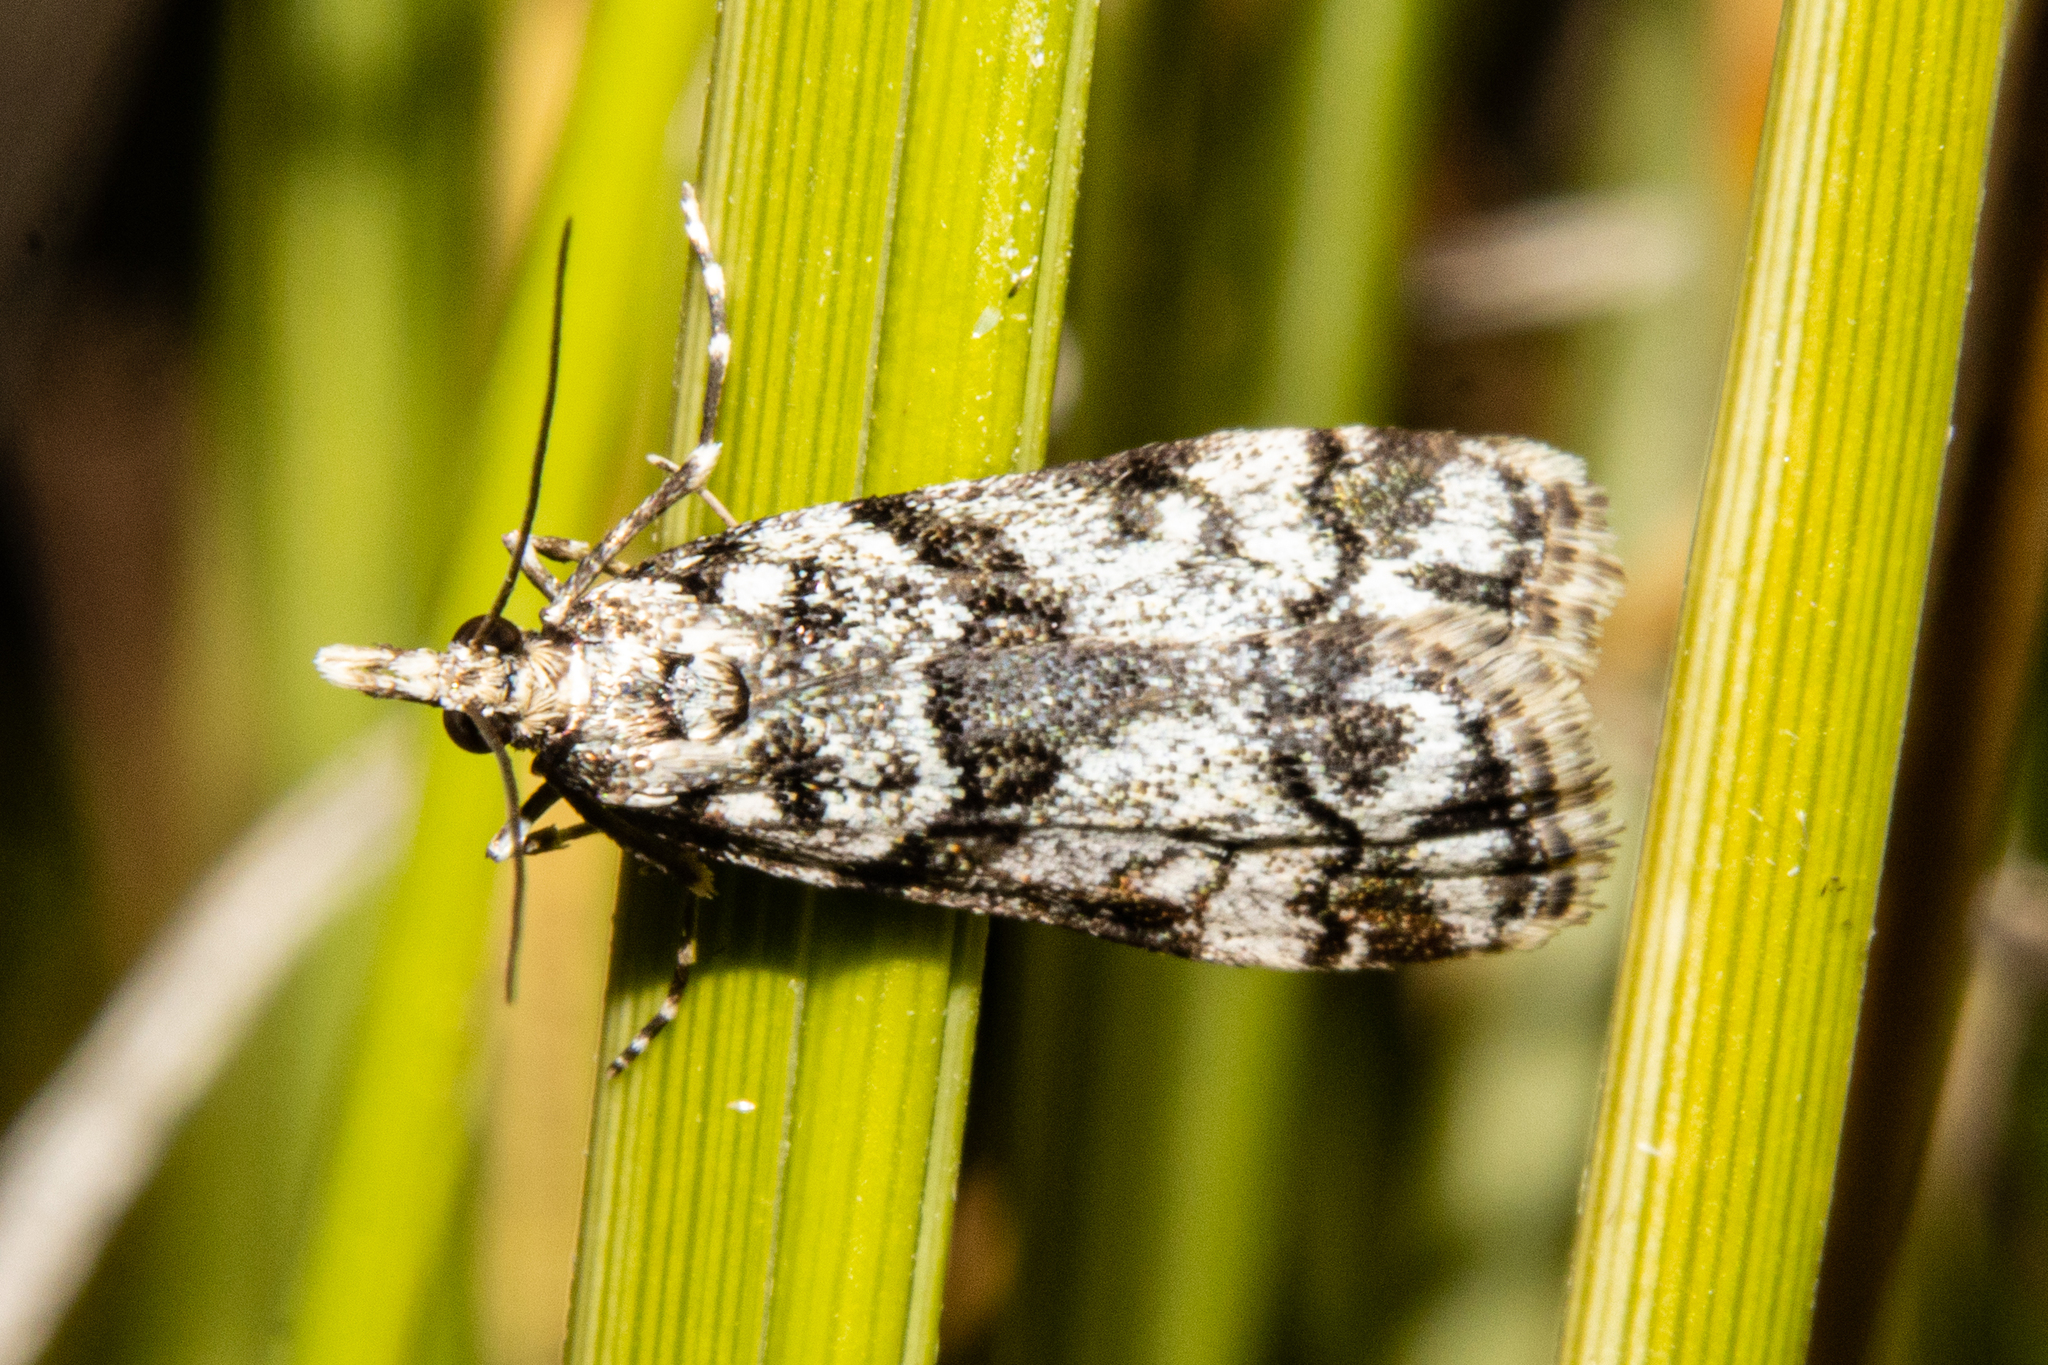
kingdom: Animalia
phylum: Arthropoda
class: Insecta
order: Lepidoptera
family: Crambidae
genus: Eudonia
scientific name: Eudonia torodes
